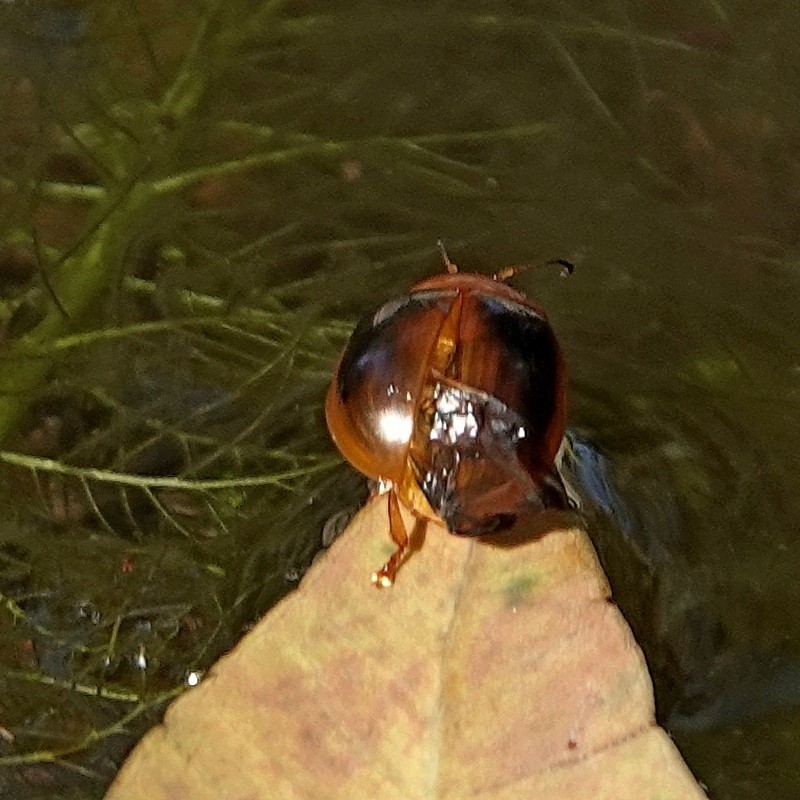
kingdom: Animalia
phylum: Arthropoda
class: Insecta
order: Coleoptera
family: Chrysomelidae
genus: Paropsisterna
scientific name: Paropsisterna
